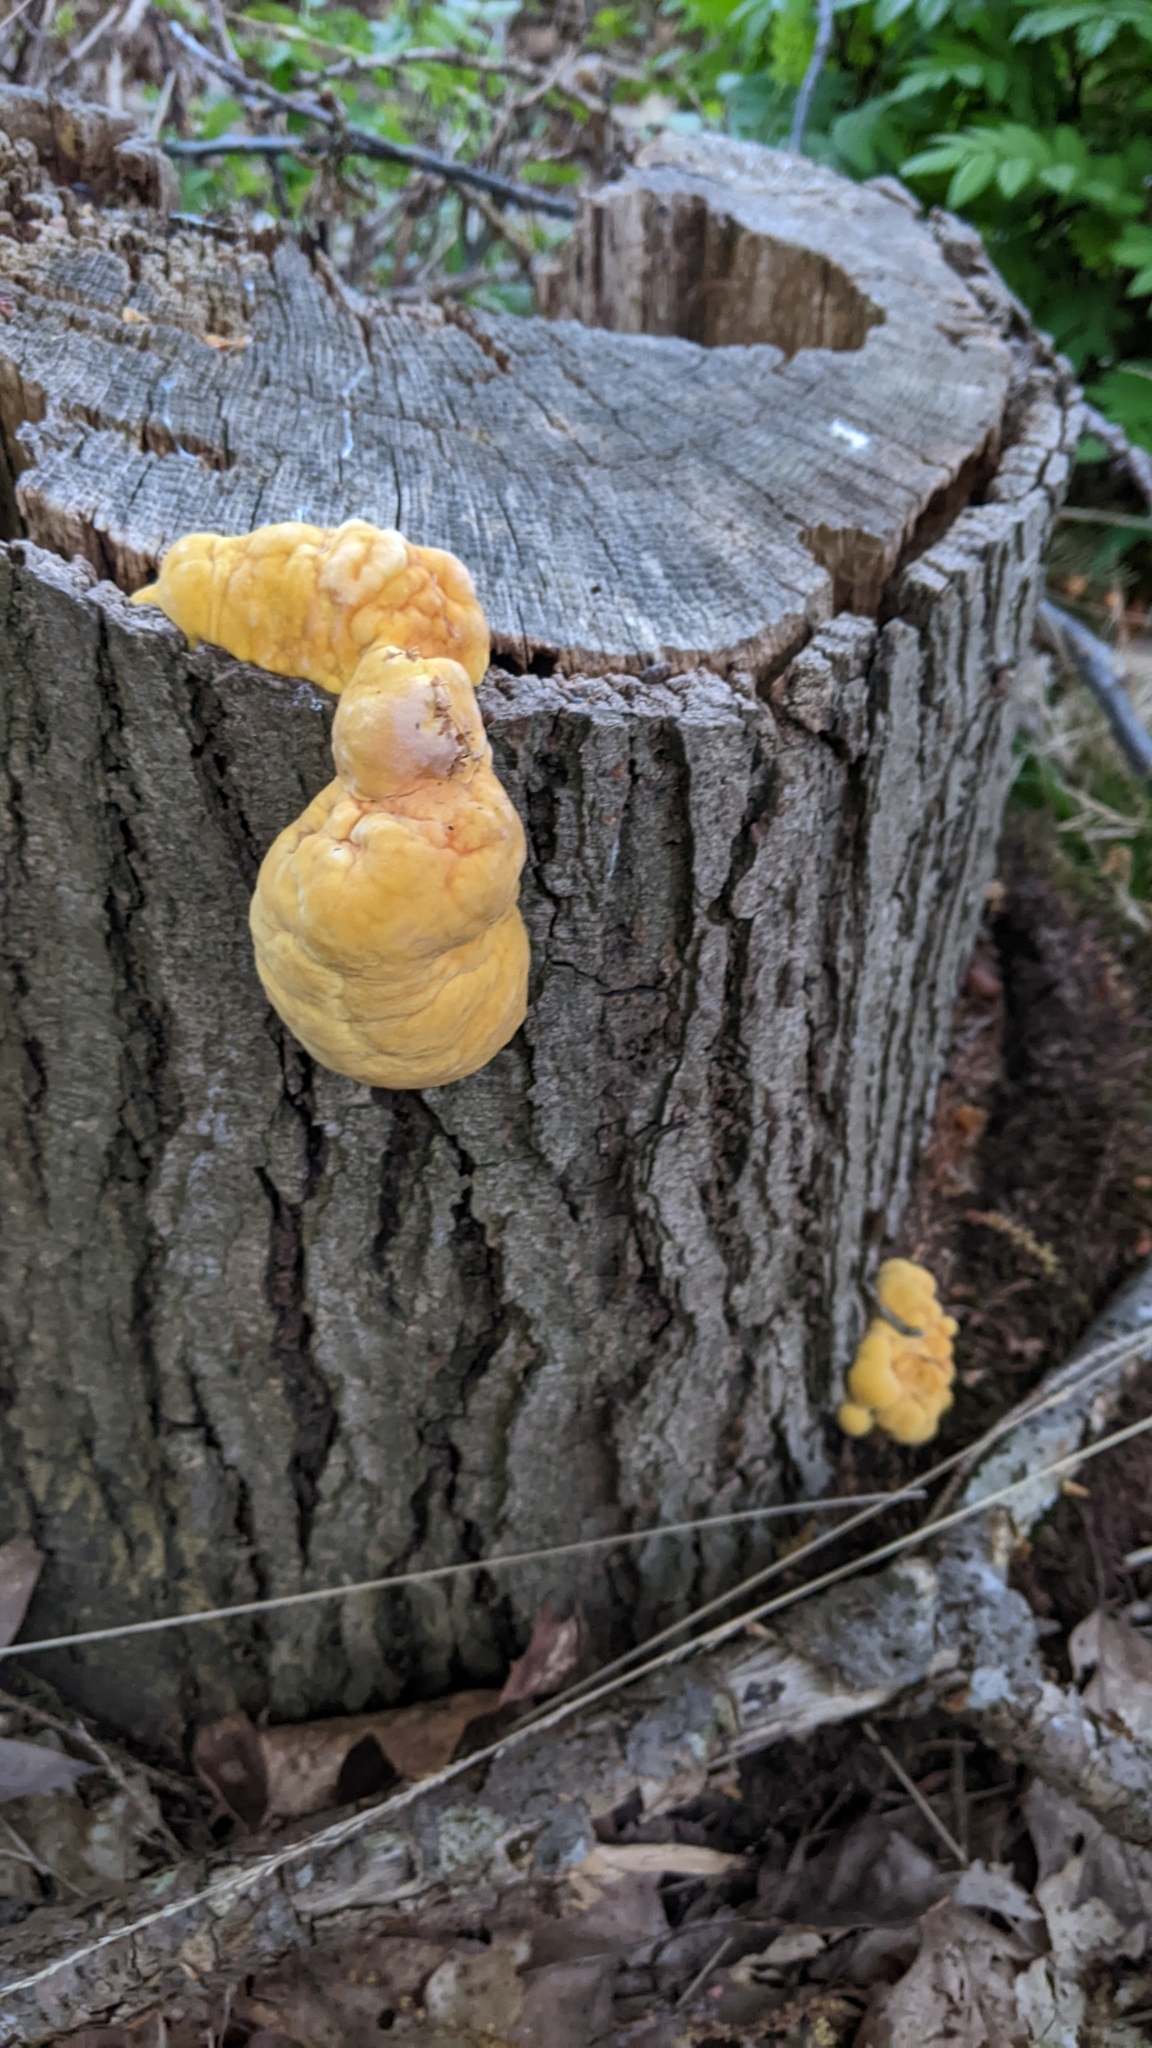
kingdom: Fungi
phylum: Basidiomycota
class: Agaricomycetes
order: Polyporales
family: Laetiporaceae
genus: Laetiporus
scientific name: Laetiporus sulphureus
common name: Chicken of the woods
